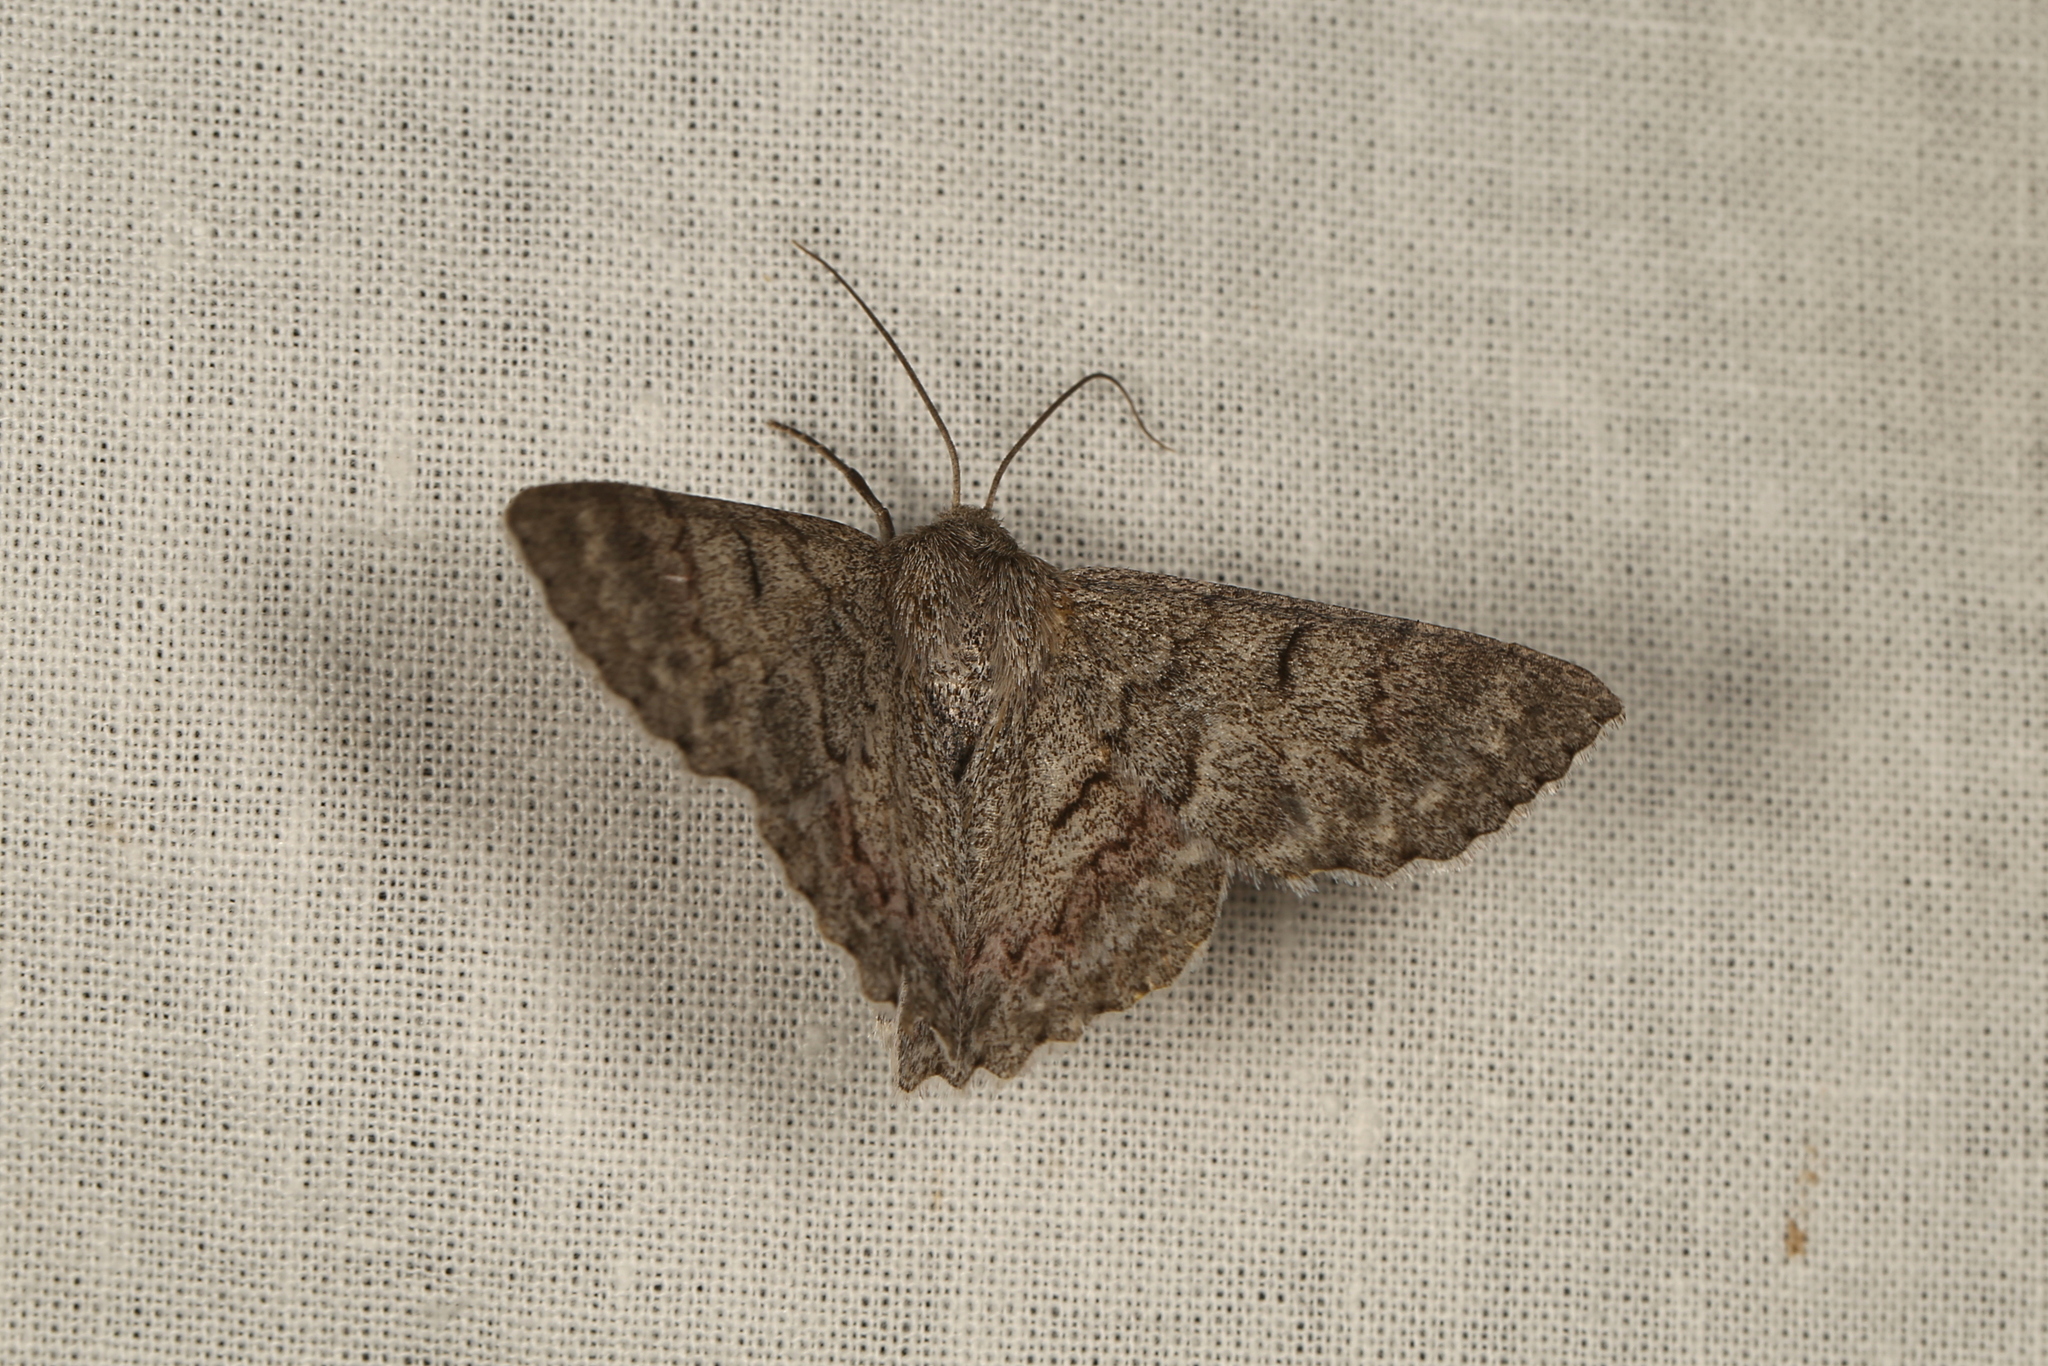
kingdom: Animalia
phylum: Arthropoda
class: Insecta
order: Lepidoptera
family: Geometridae
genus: Crypsiphona
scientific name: Crypsiphona ocultaria
